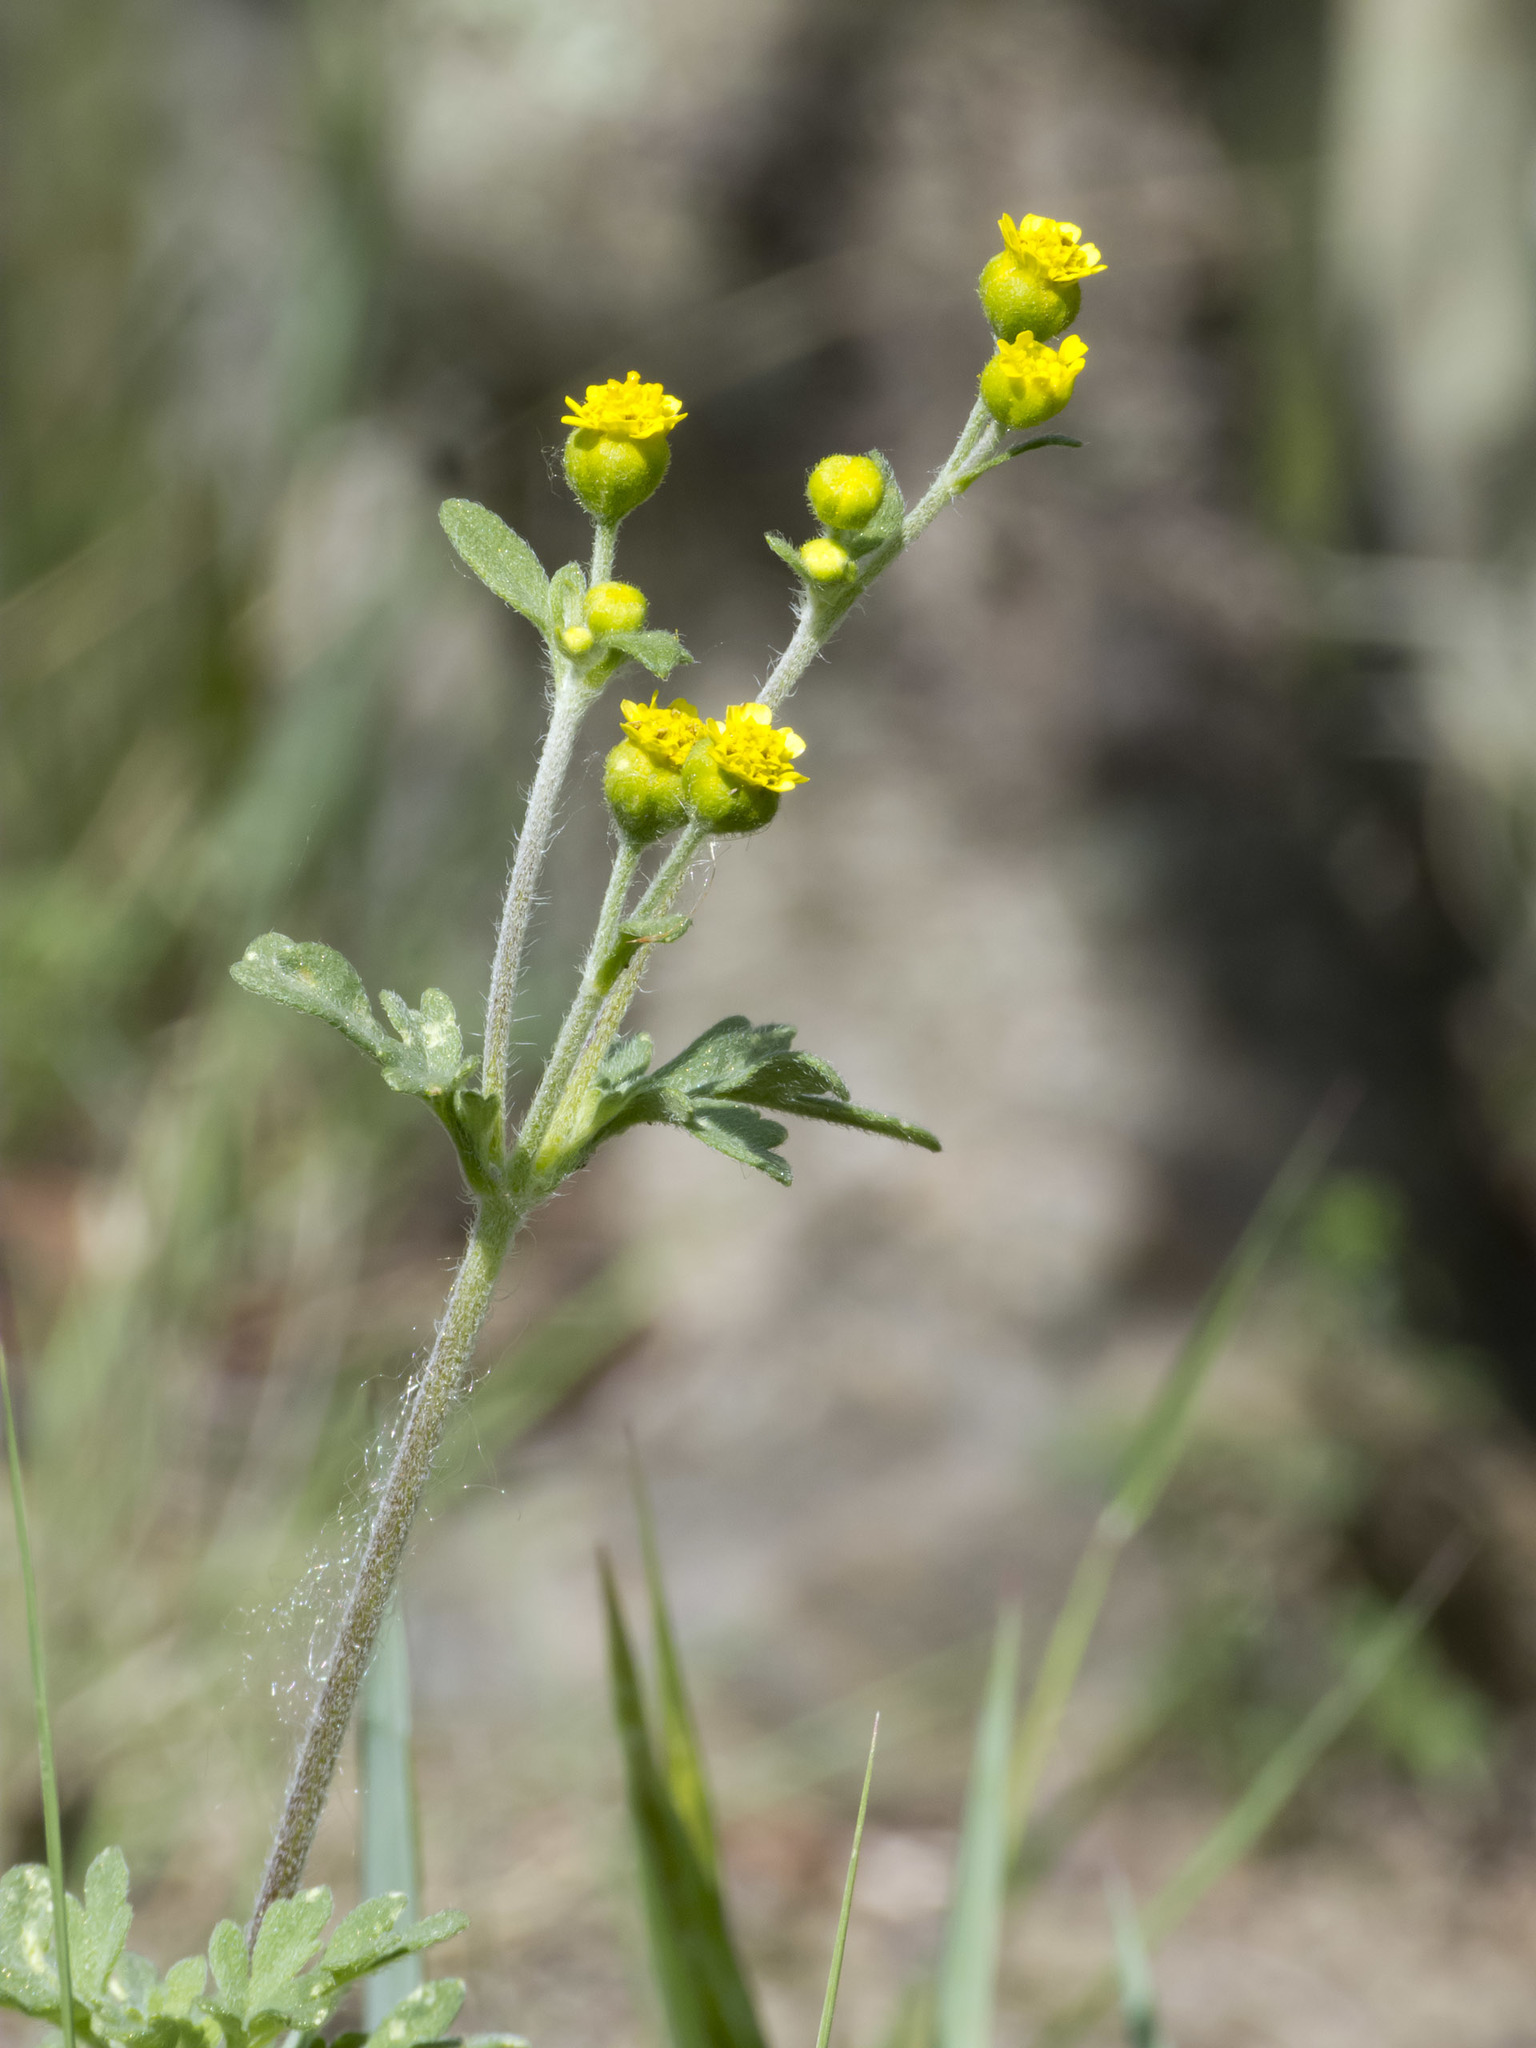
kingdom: Plantae
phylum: Tracheophyta
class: Magnoliopsida
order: Asterales
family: Asteraceae
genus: Villanova
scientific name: Villanova oppositifolia
